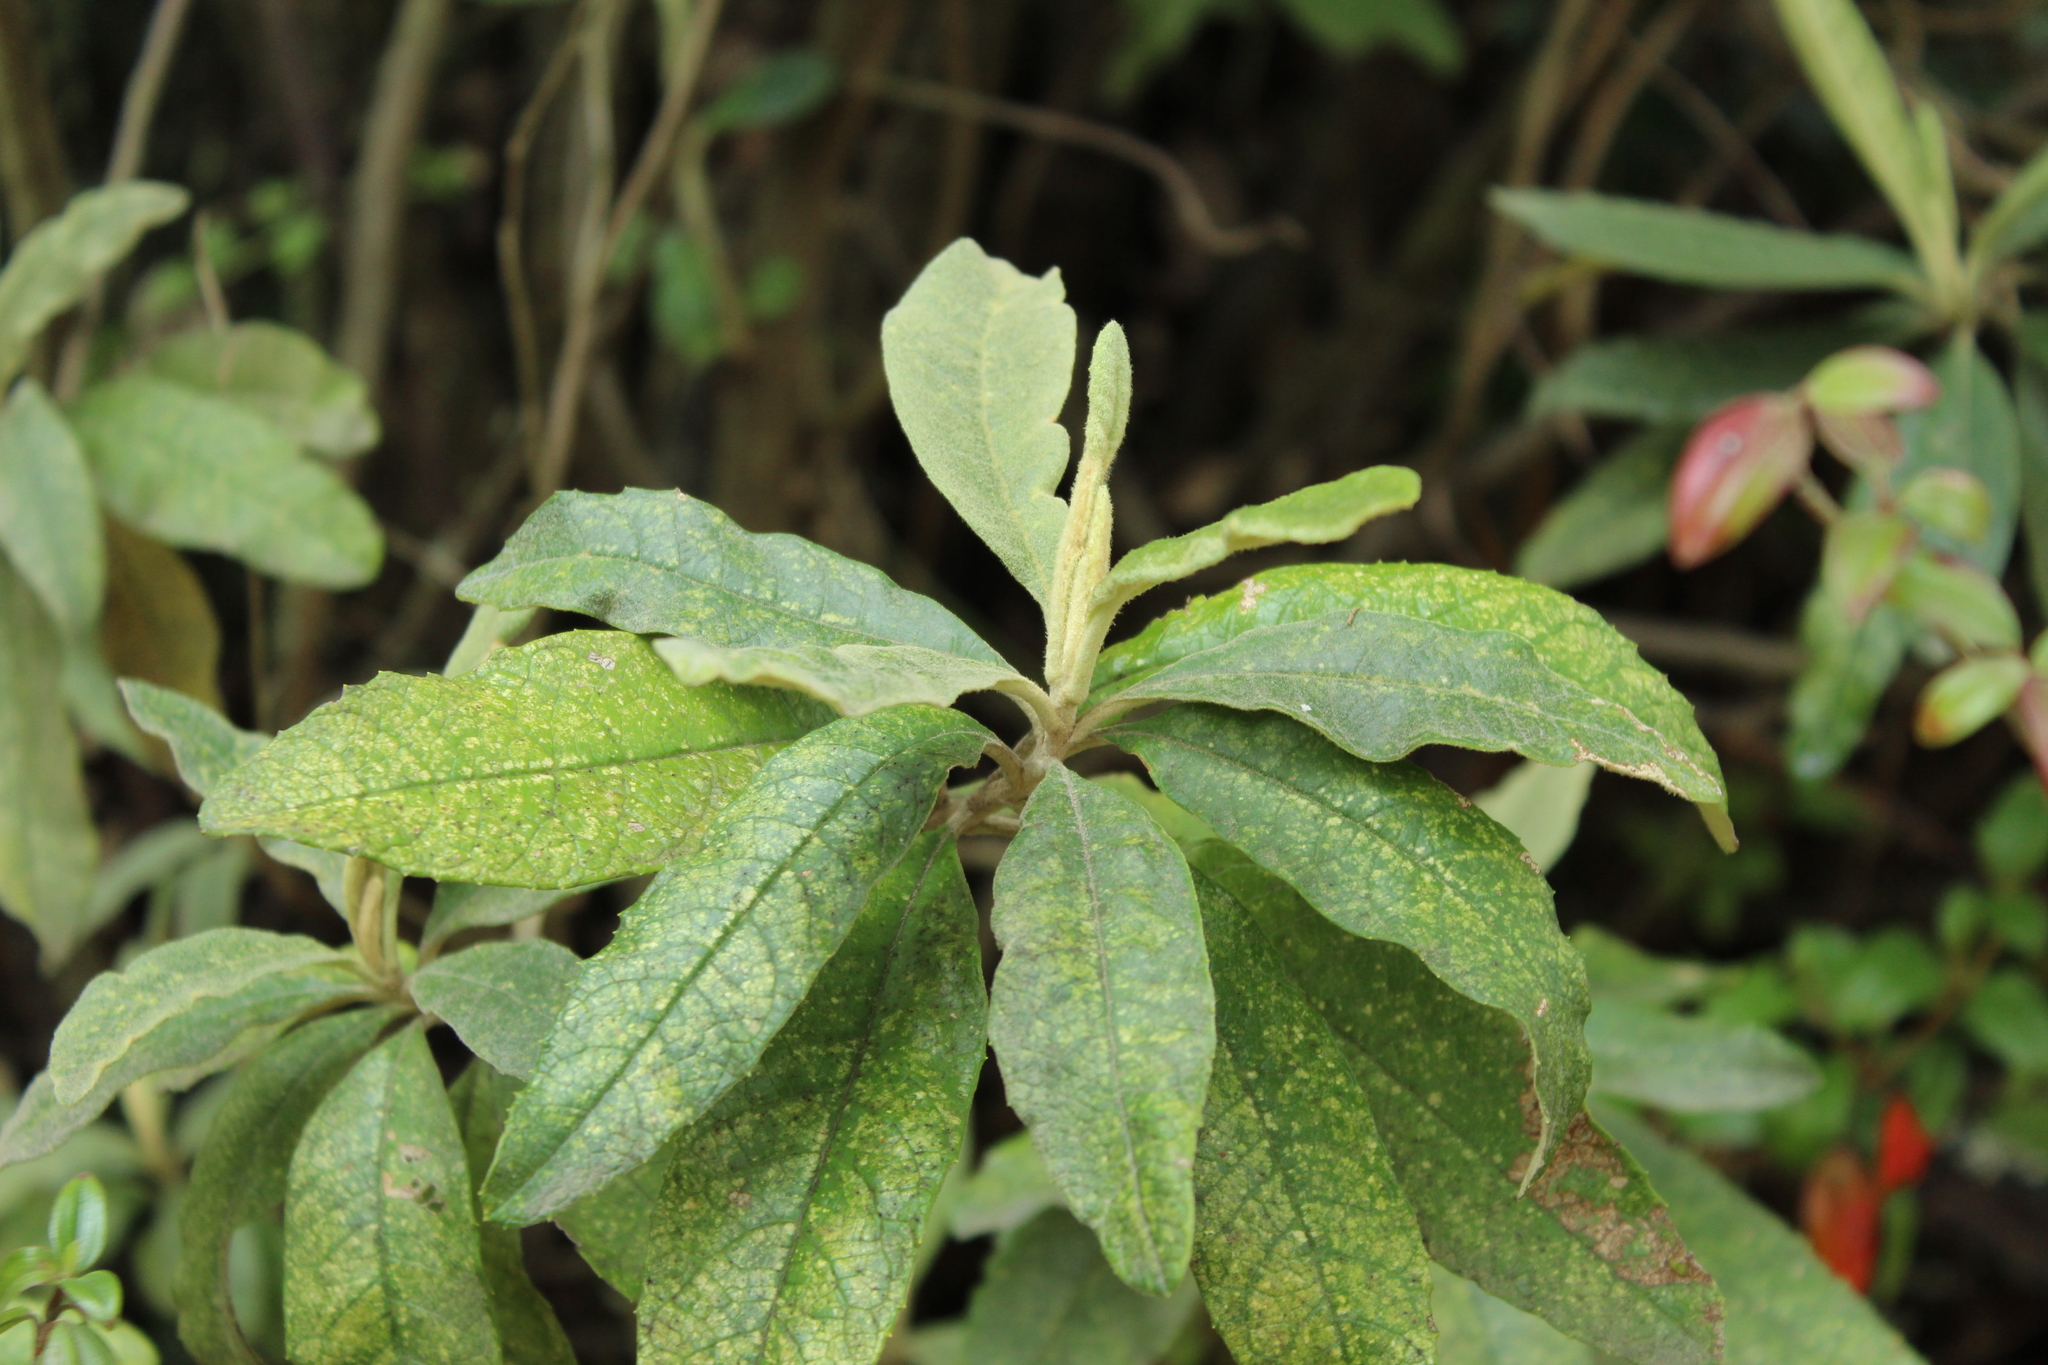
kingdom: Plantae
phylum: Tracheophyta
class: Magnoliopsida
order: Asterales
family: Asteraceae
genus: Linochilus
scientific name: Linochilus tenuifolius
